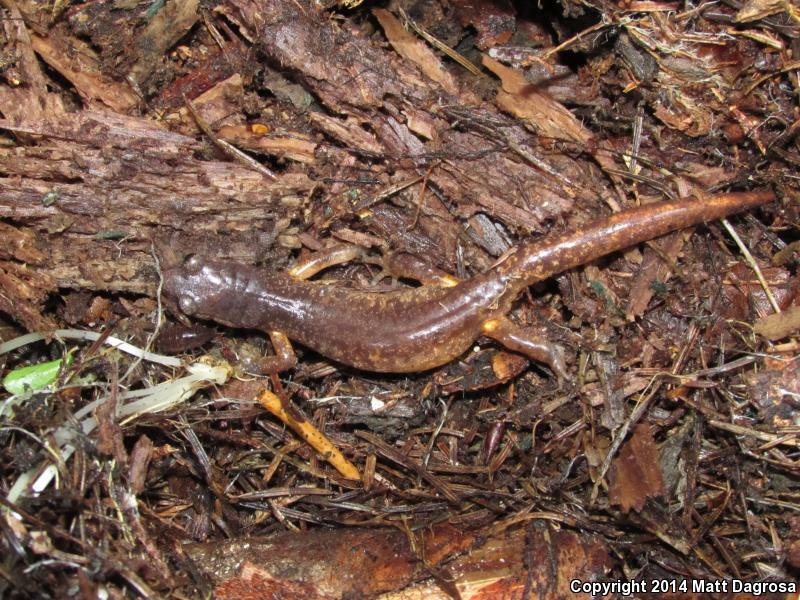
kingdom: Animalia
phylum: Chordata
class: Amphibia
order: Caudata
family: Plethodontidae
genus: Ensatina
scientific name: Ensatina eschscholtzii
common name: Ensatina
